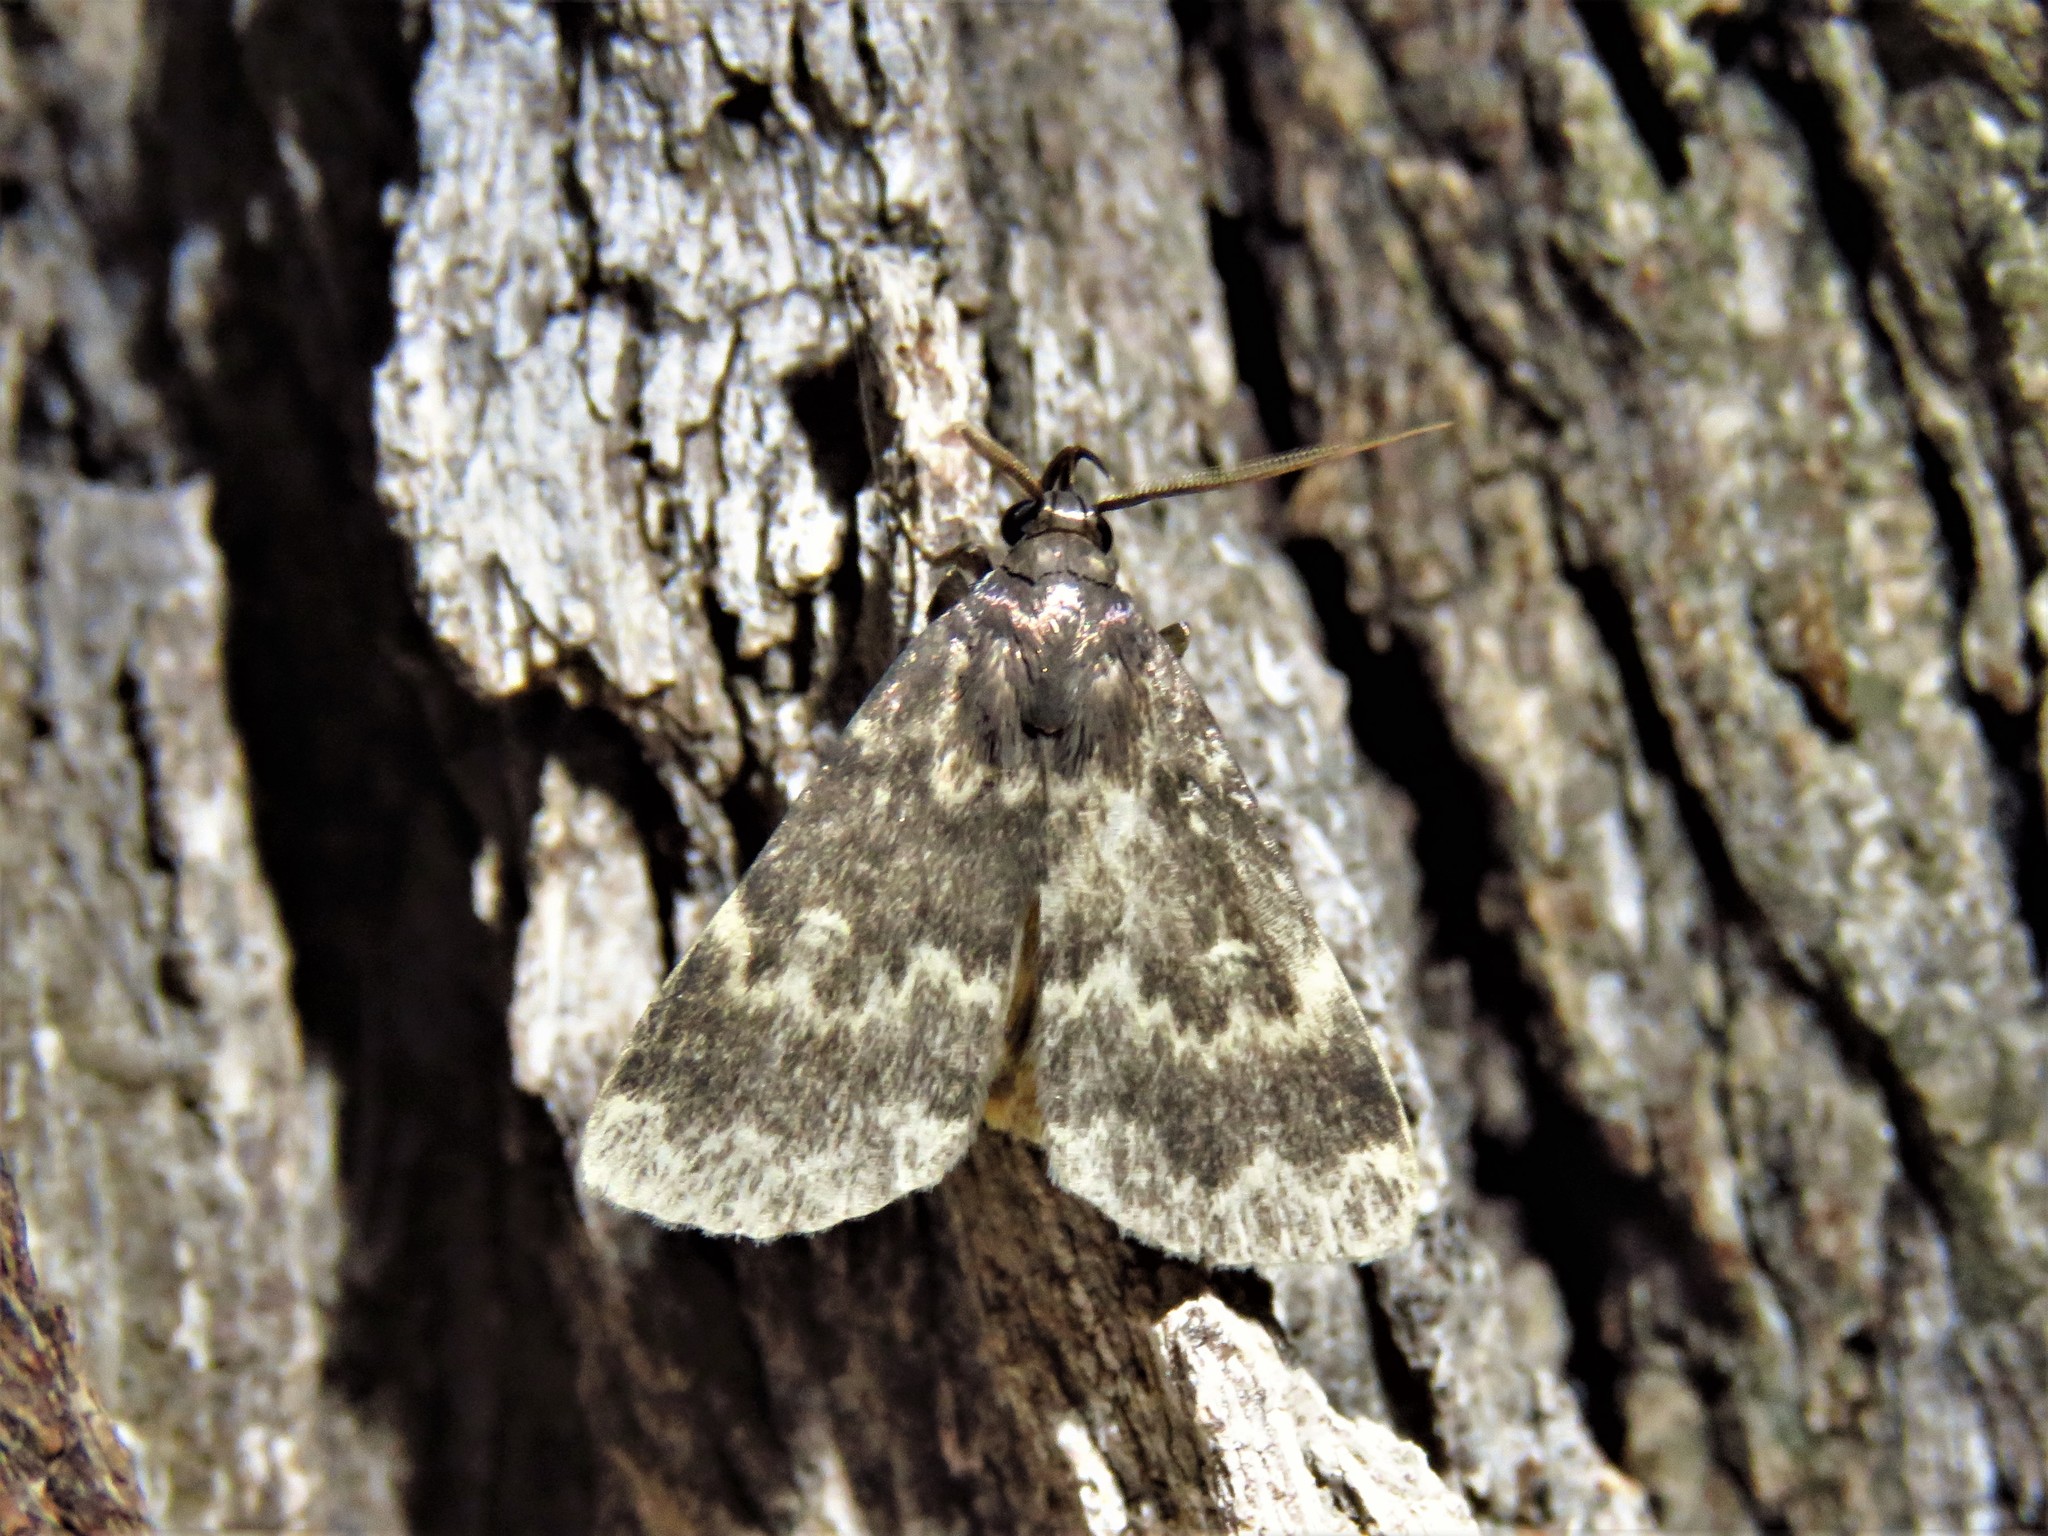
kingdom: Animalia
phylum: Arthropoda
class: Insecta
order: Lepidoptera
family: Erebidae
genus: Idia
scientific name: Idia lubricalis
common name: Twin-striped tabby
